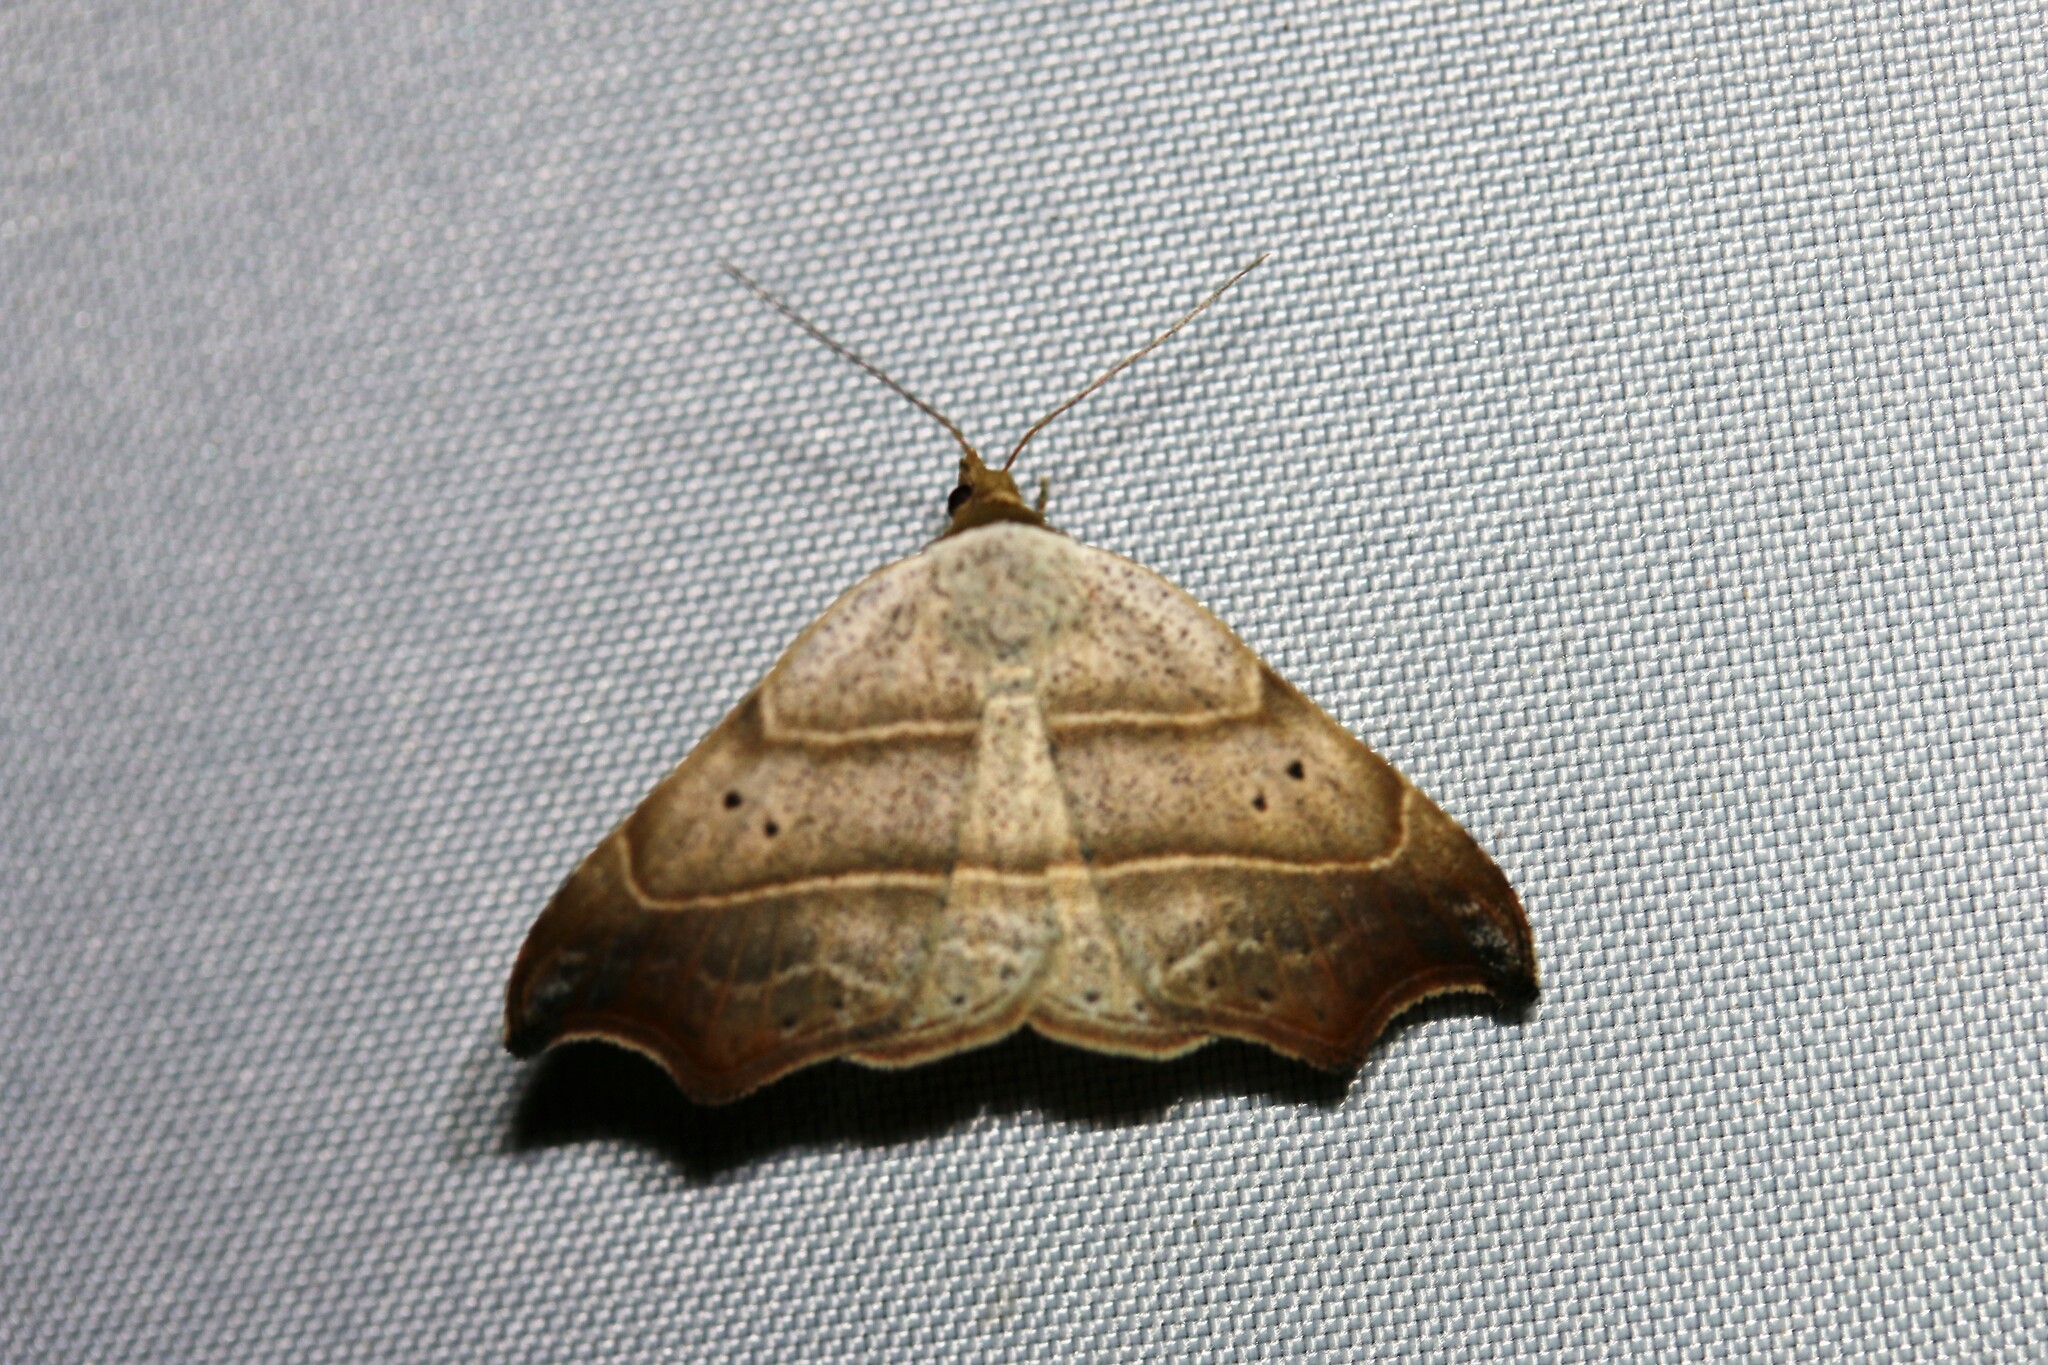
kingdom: Animalia
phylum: Arthropoda
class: Insecta
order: Lepidoptera
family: Erebidae
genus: Laspeyria
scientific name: Laspeyria flexula
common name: Beautiful hook-tip
